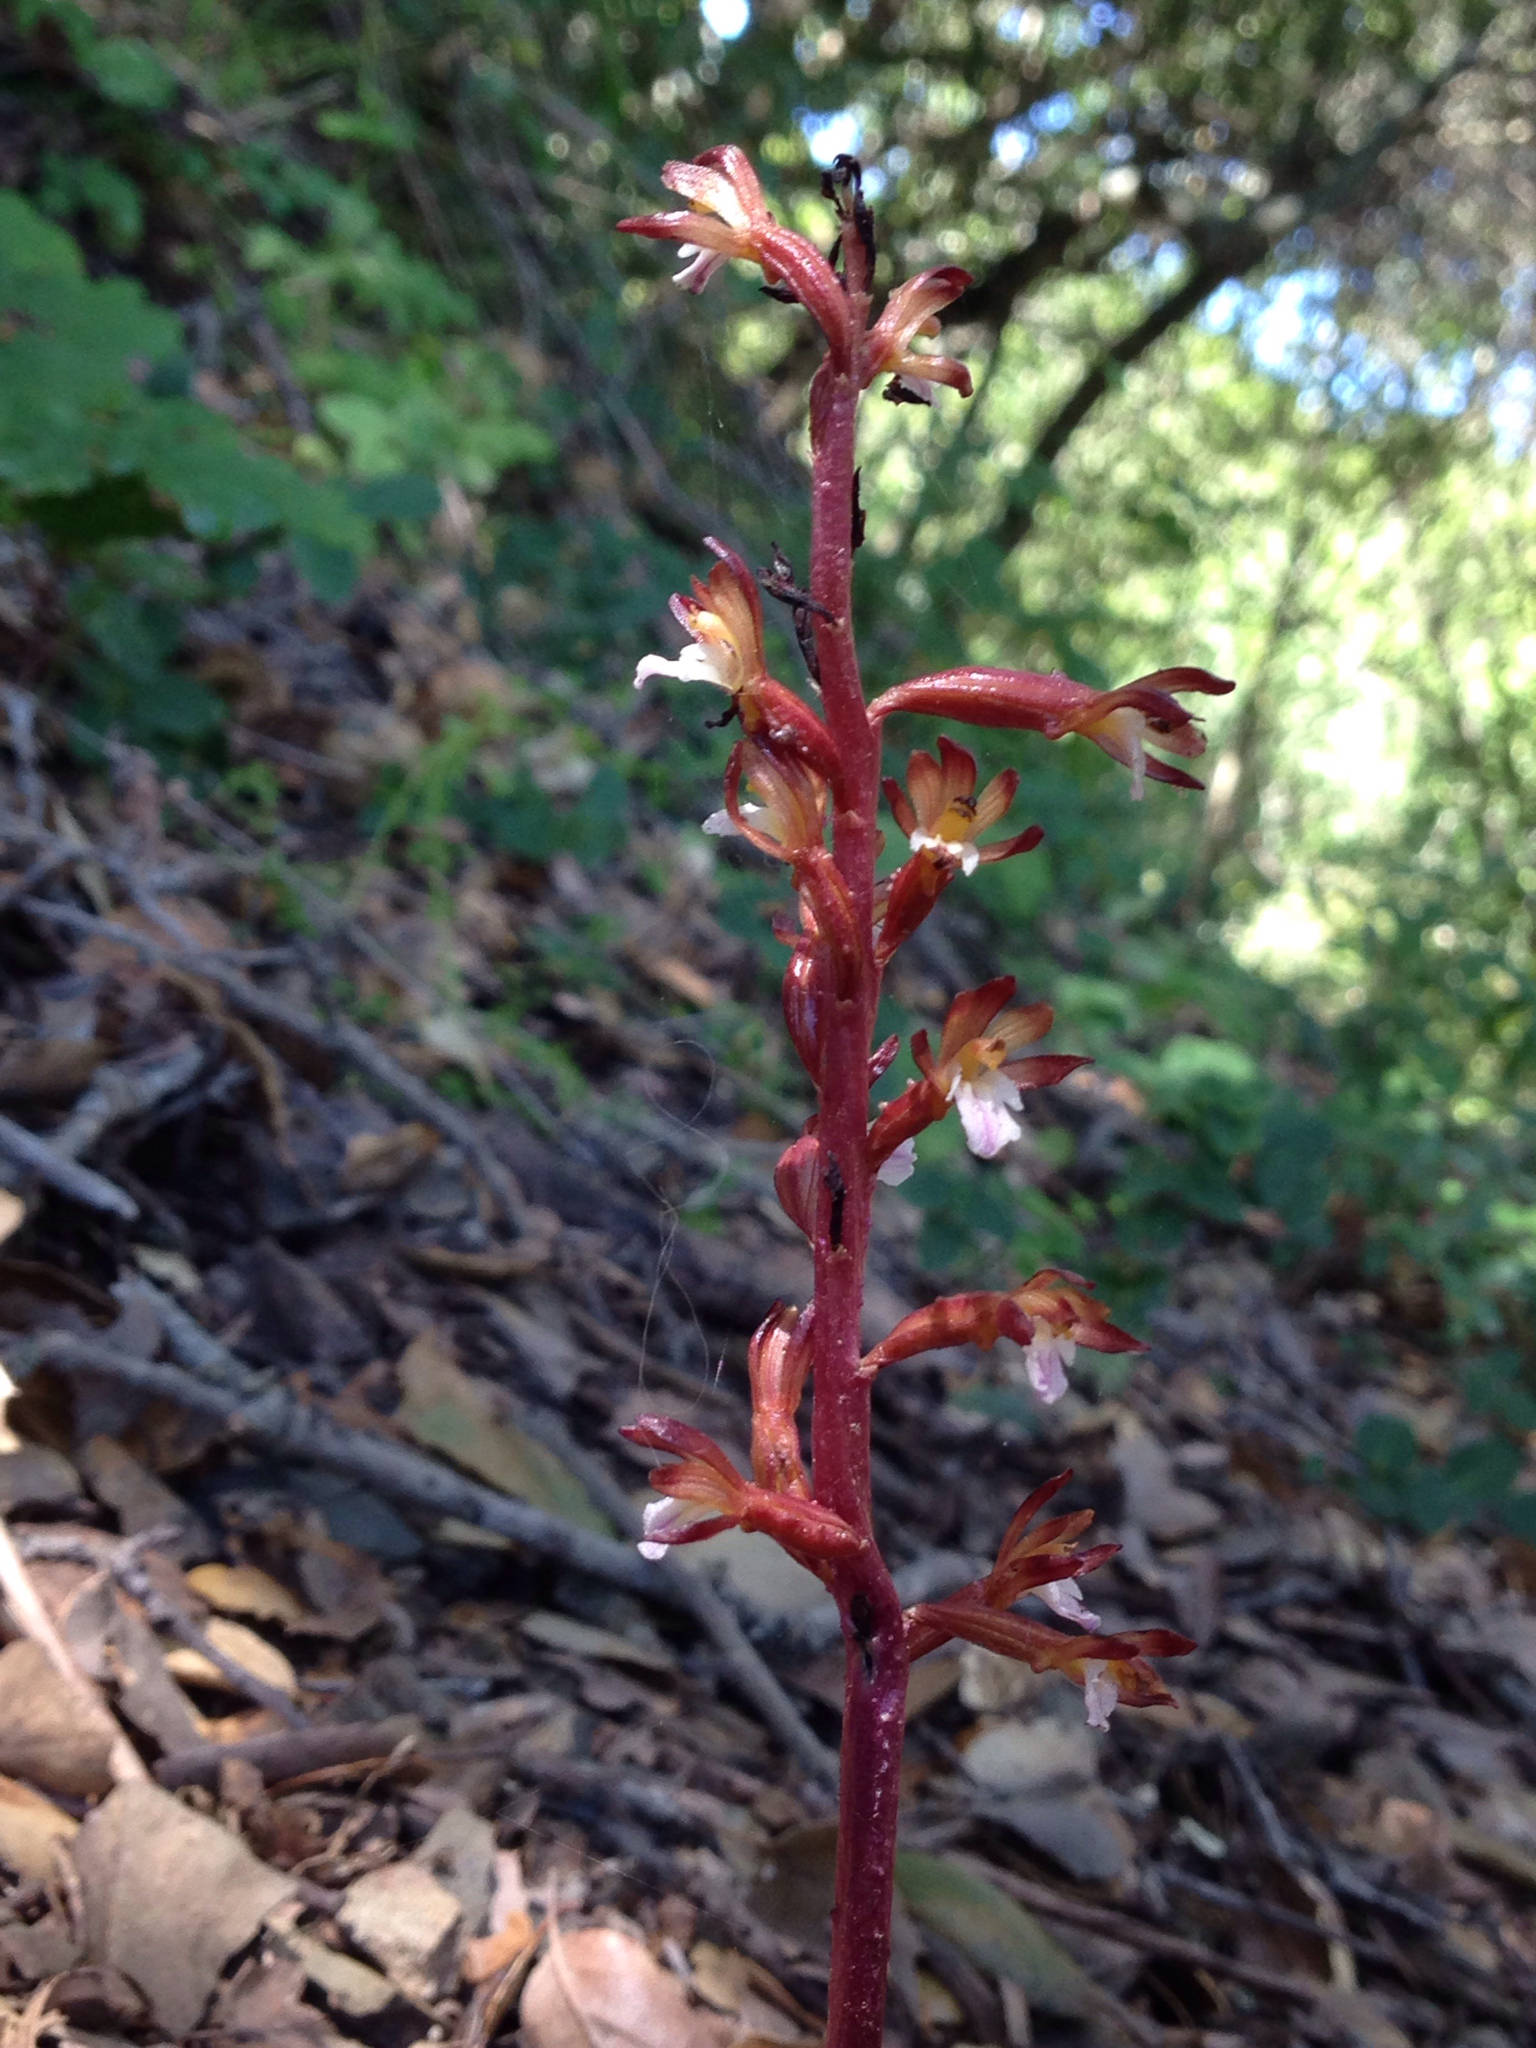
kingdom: Plantae
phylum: Tracheophyta
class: Liliopsida
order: Asparagales
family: Orchidaceae
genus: Corallorhiza
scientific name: Corallorhiza maculata
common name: Spotted coralroot
